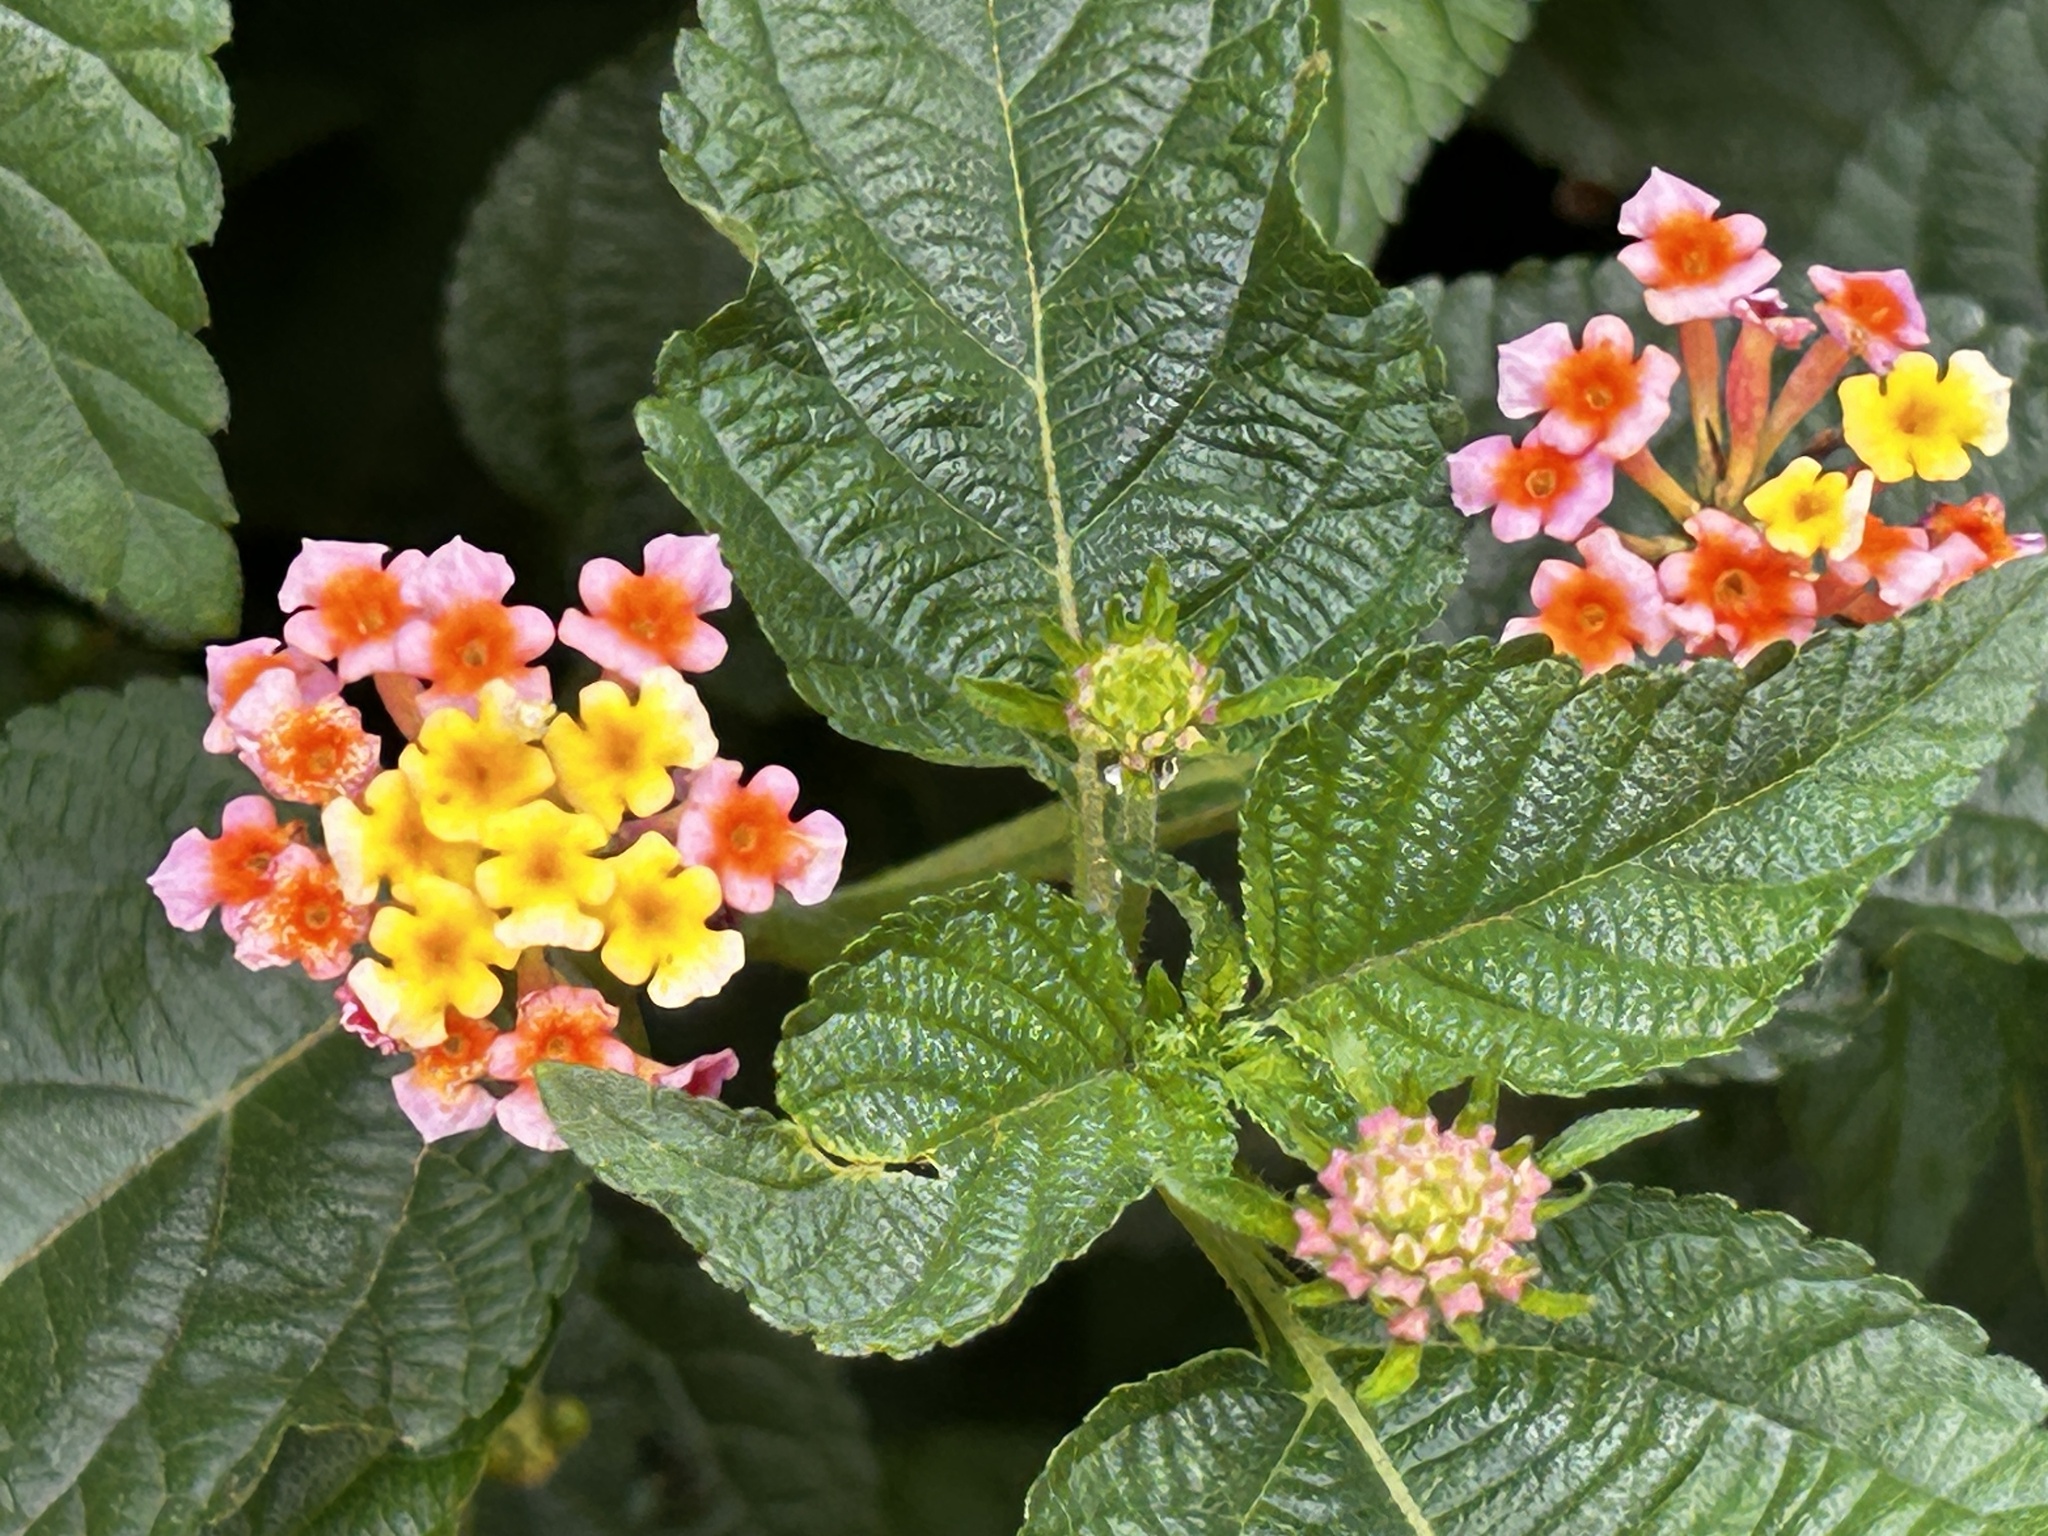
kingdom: Plantae
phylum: Tracheophyta
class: Magnoliopsida
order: Lamiales
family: Verbenaceae
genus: Lantana
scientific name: Lantana camara
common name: Lantana
